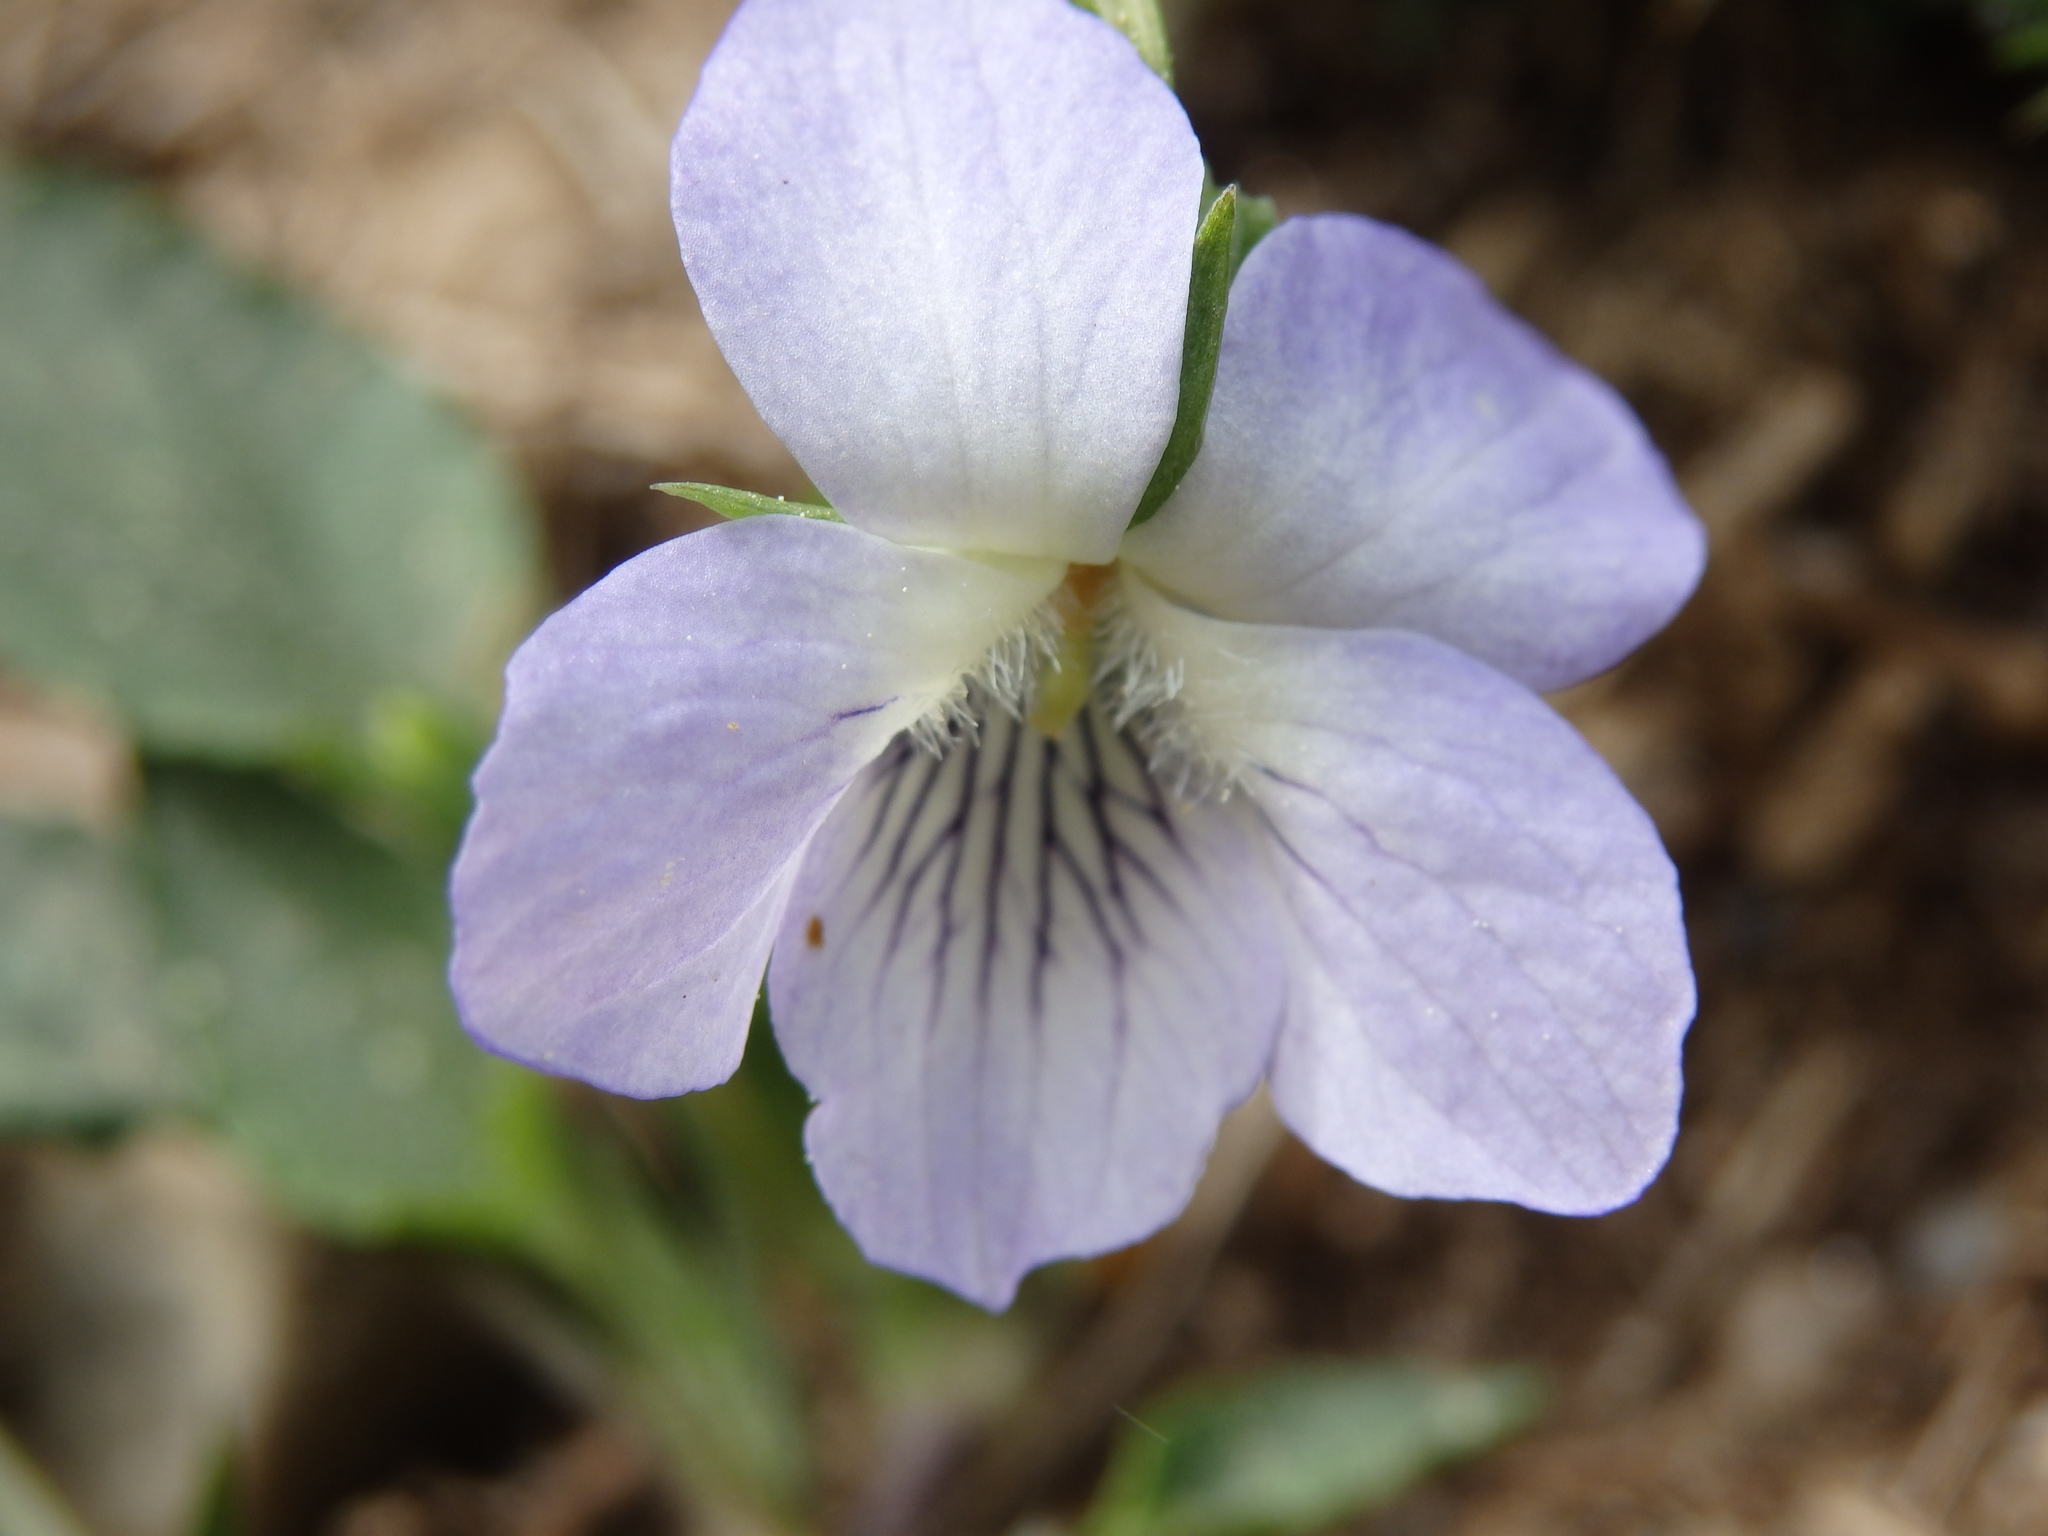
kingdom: Plantae
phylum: Tracheophyta
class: Magnoliopsida
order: Malpighiales
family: Violaceae
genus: Viola
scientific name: Viola lactea
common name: Pale dog-violet
